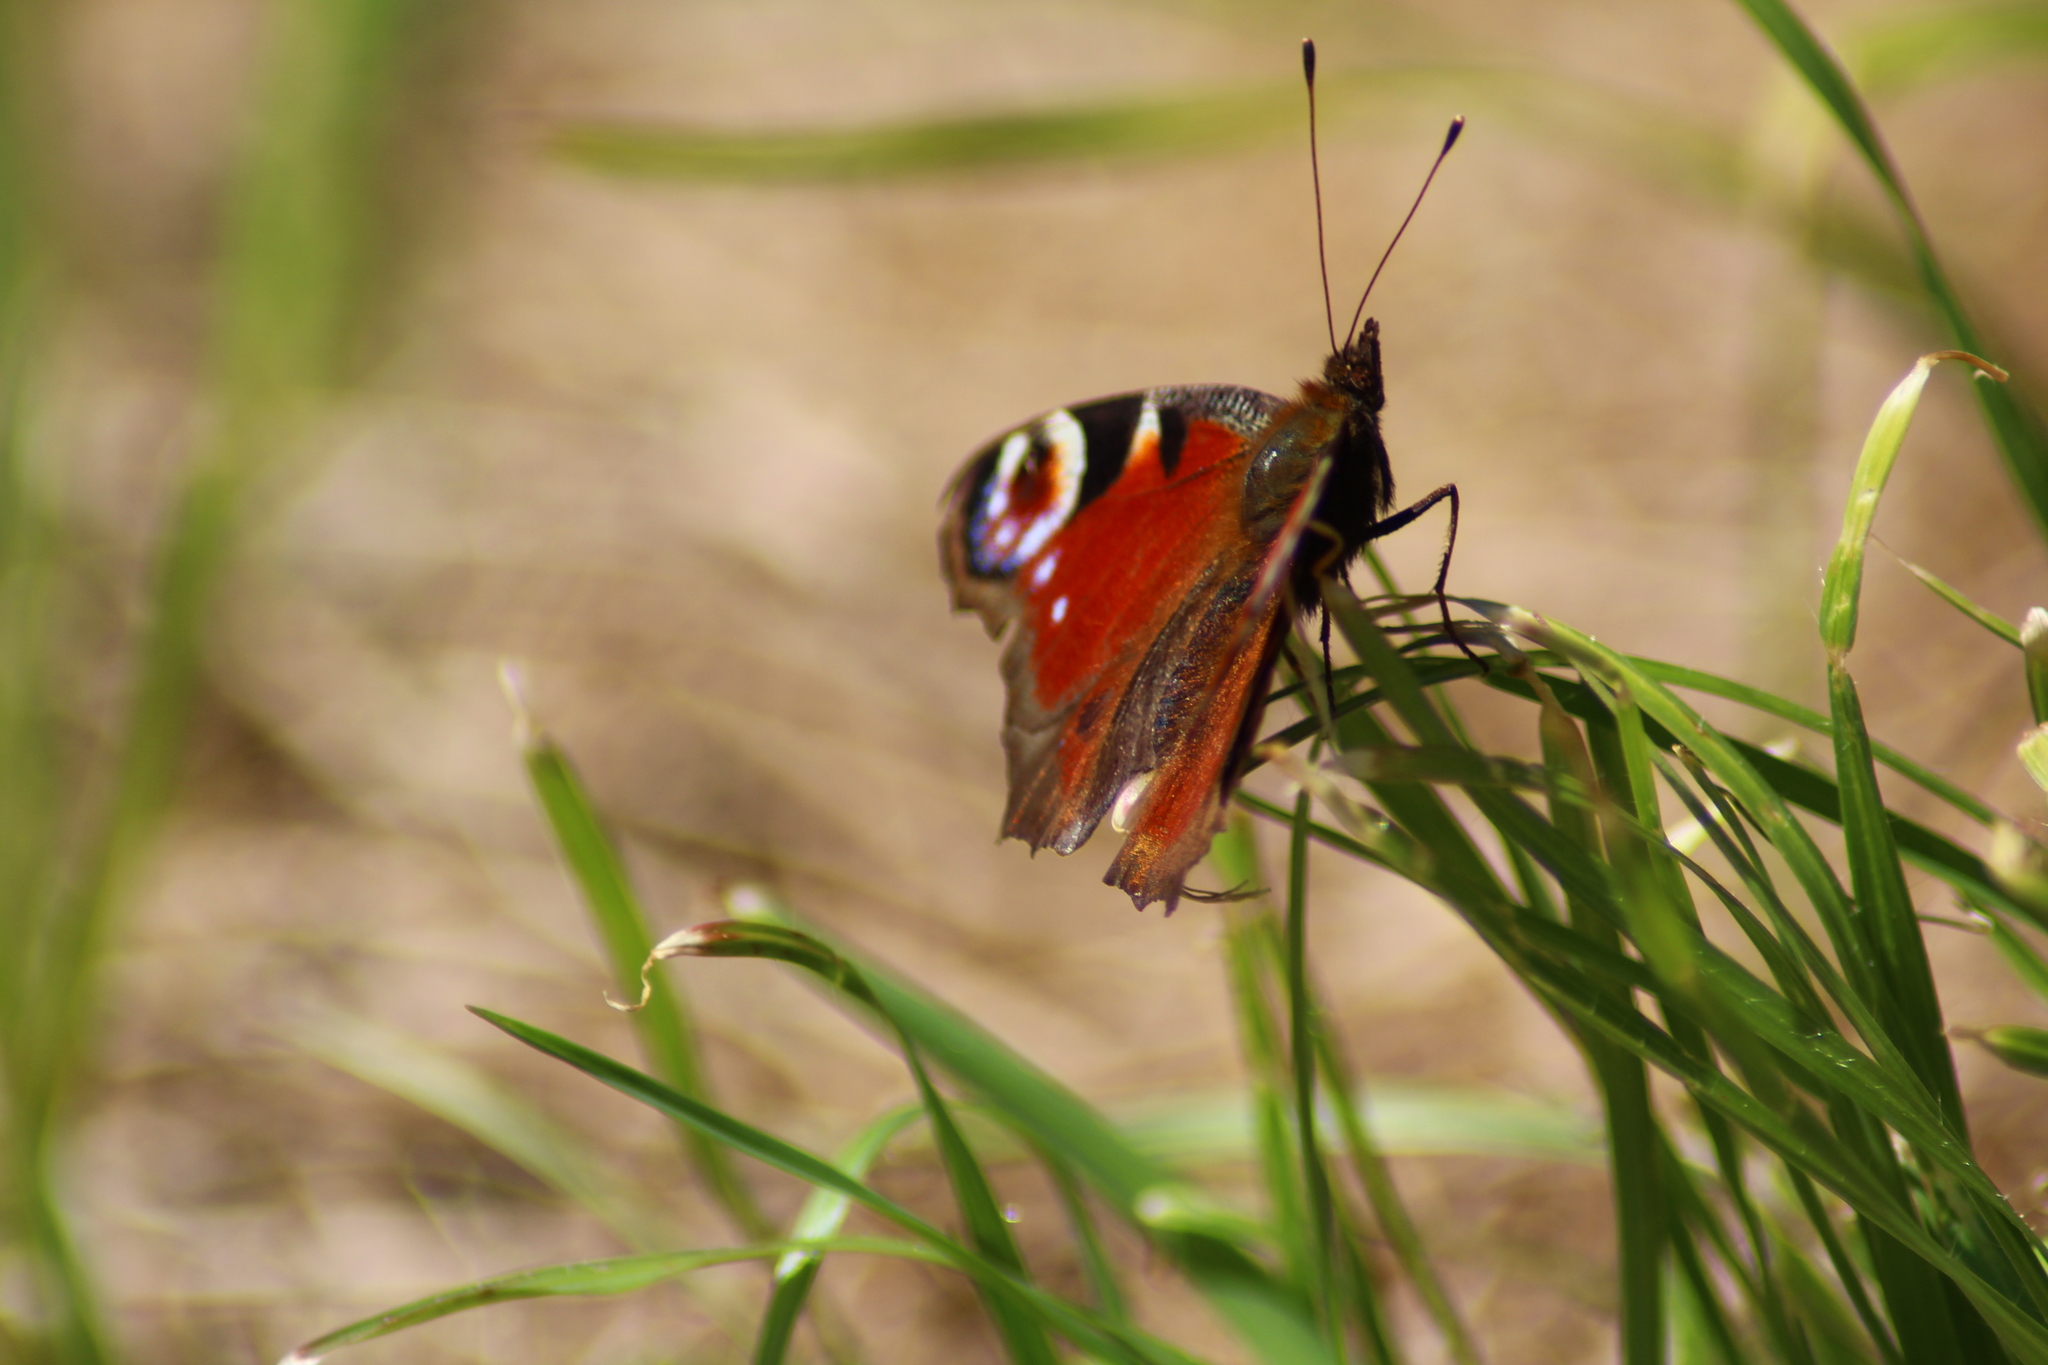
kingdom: Animalia
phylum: Arthropoda
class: Insecta
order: Lepidoptera
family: Nymphalidae
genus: Aglais
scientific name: Aglais io
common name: Peacock
